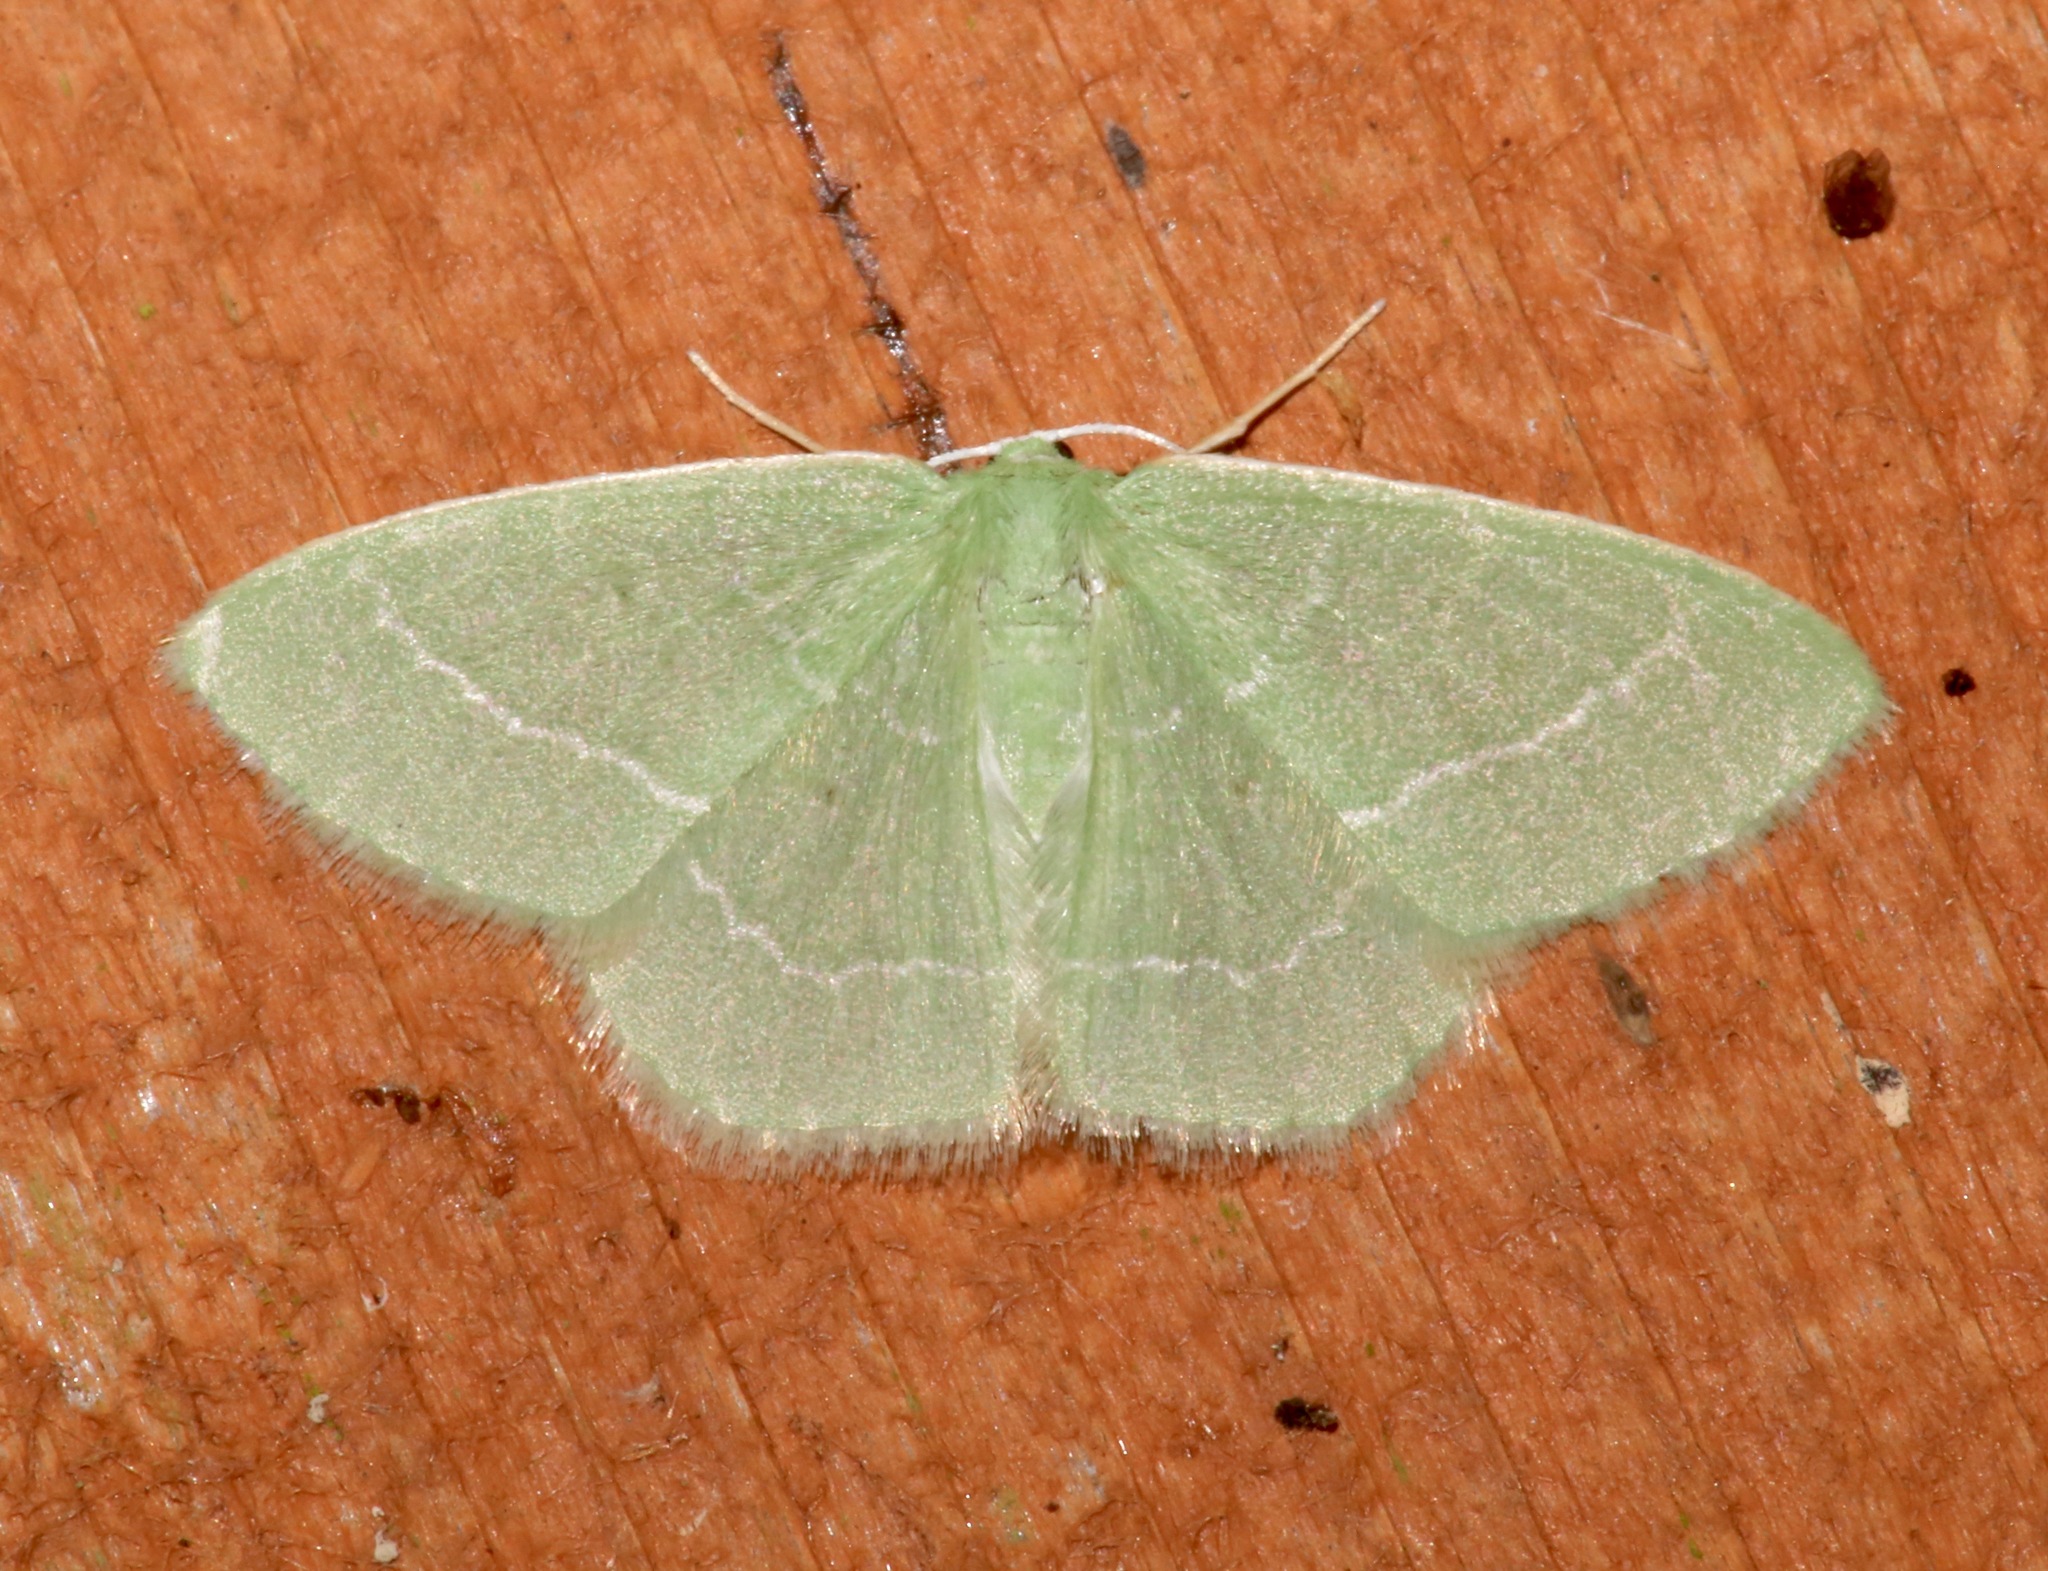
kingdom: Animalia
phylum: Arthropoda
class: Insecta
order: Lepidoptera
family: Geometridae
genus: Nemoria
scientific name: Nemoria elfa
